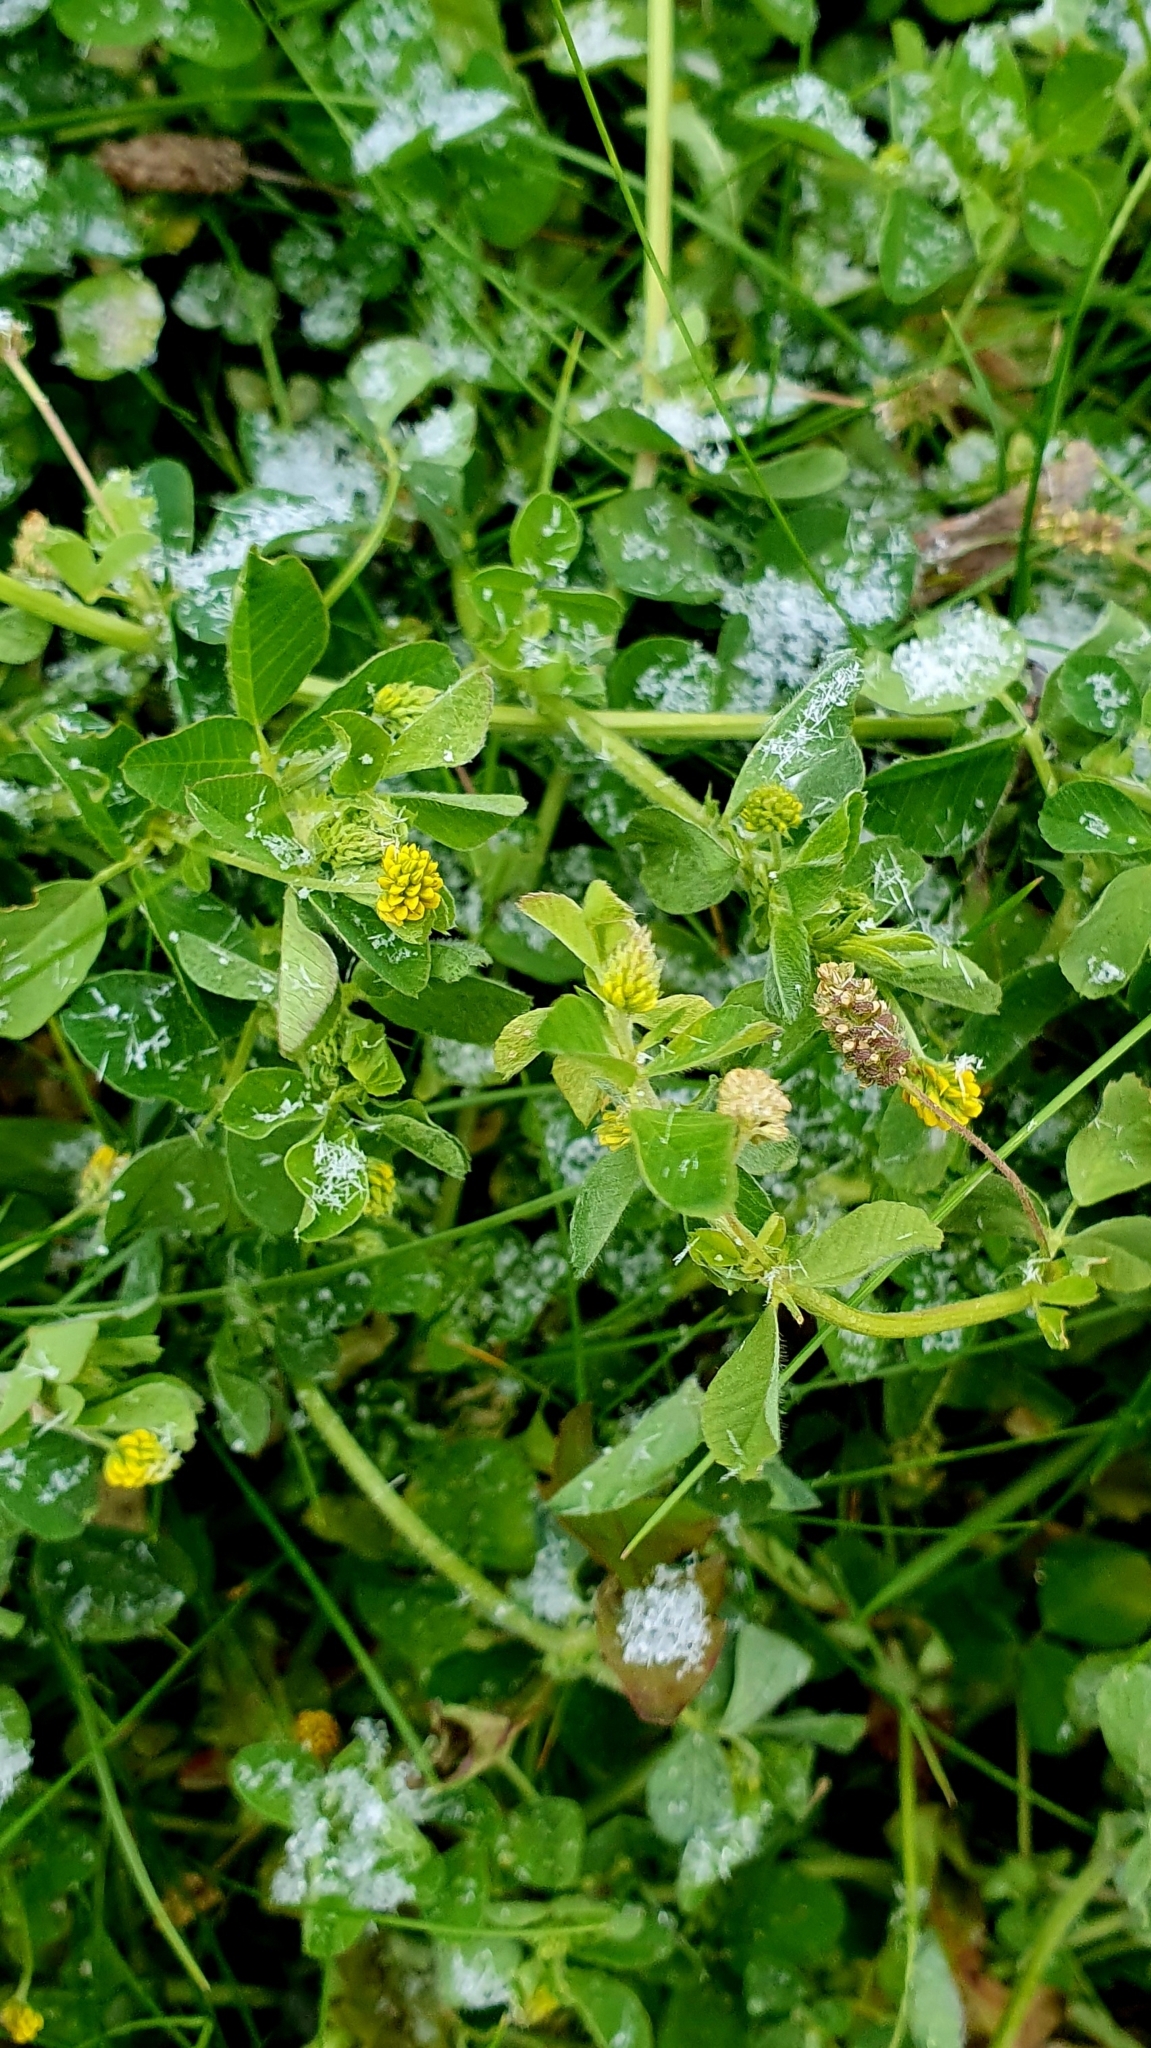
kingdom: Plantae
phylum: Tracheophyta
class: Magnoliopsida
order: Fabales
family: Fabaceae
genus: Medicago
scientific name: Medicago lupulina
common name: Black medick
